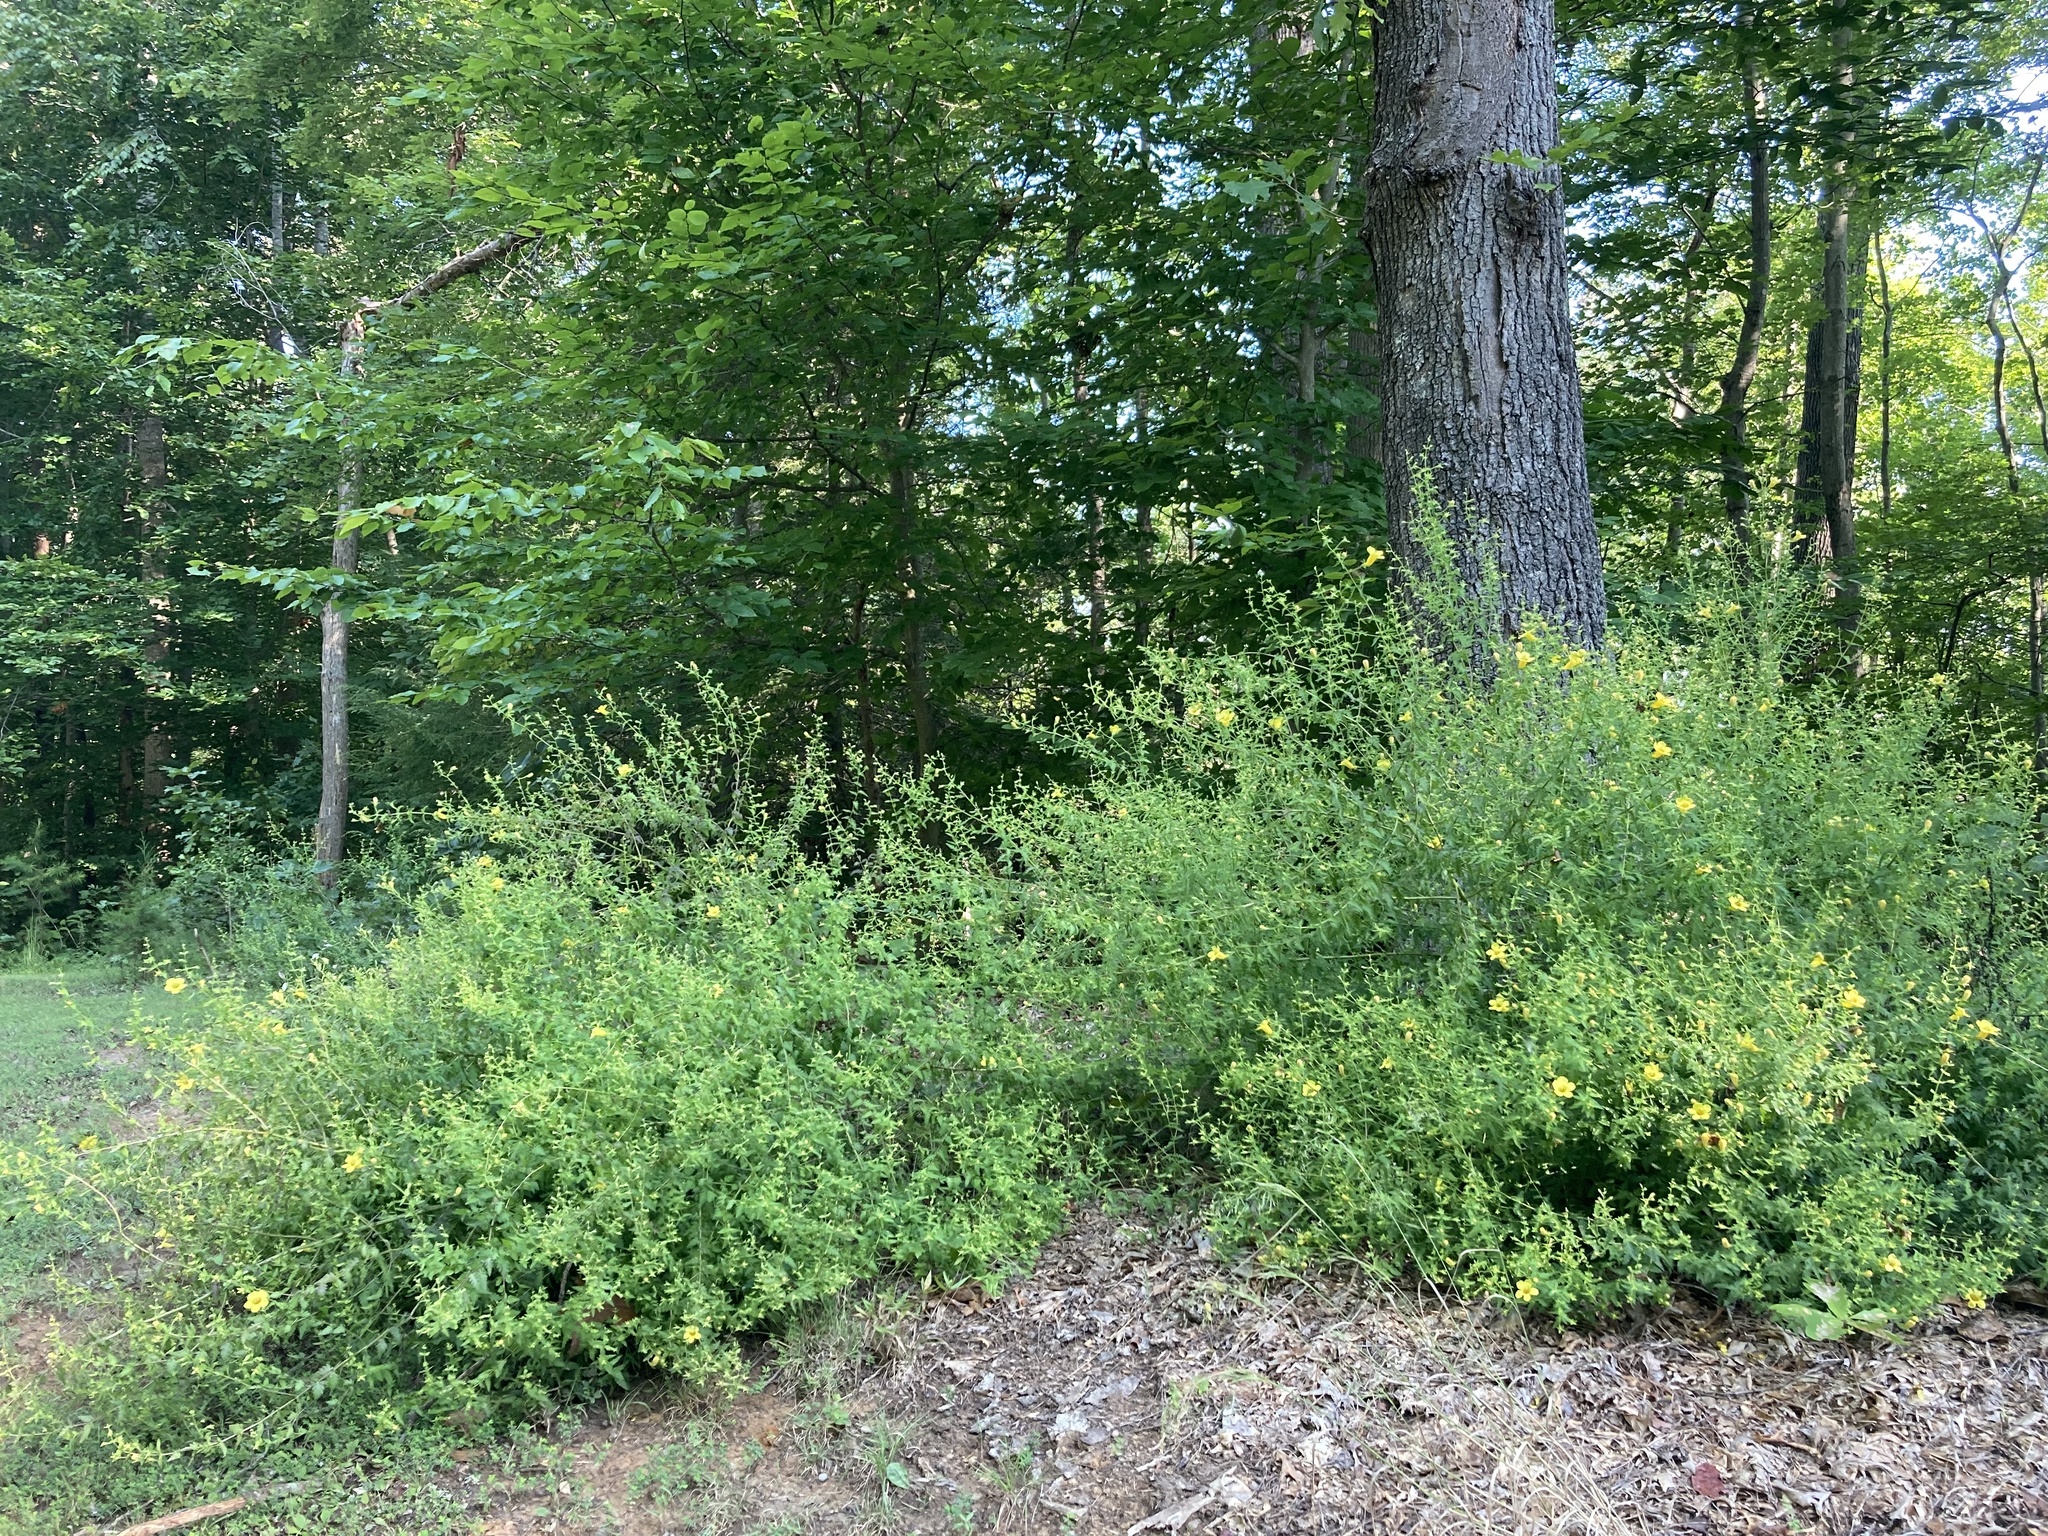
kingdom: Plantae
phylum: Tracheophyta
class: Magnoliopsida
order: Lamiales
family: Orobanchaceae
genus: Aureolaria
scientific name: Aureolaria pedicularia
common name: Annual false foxglove
